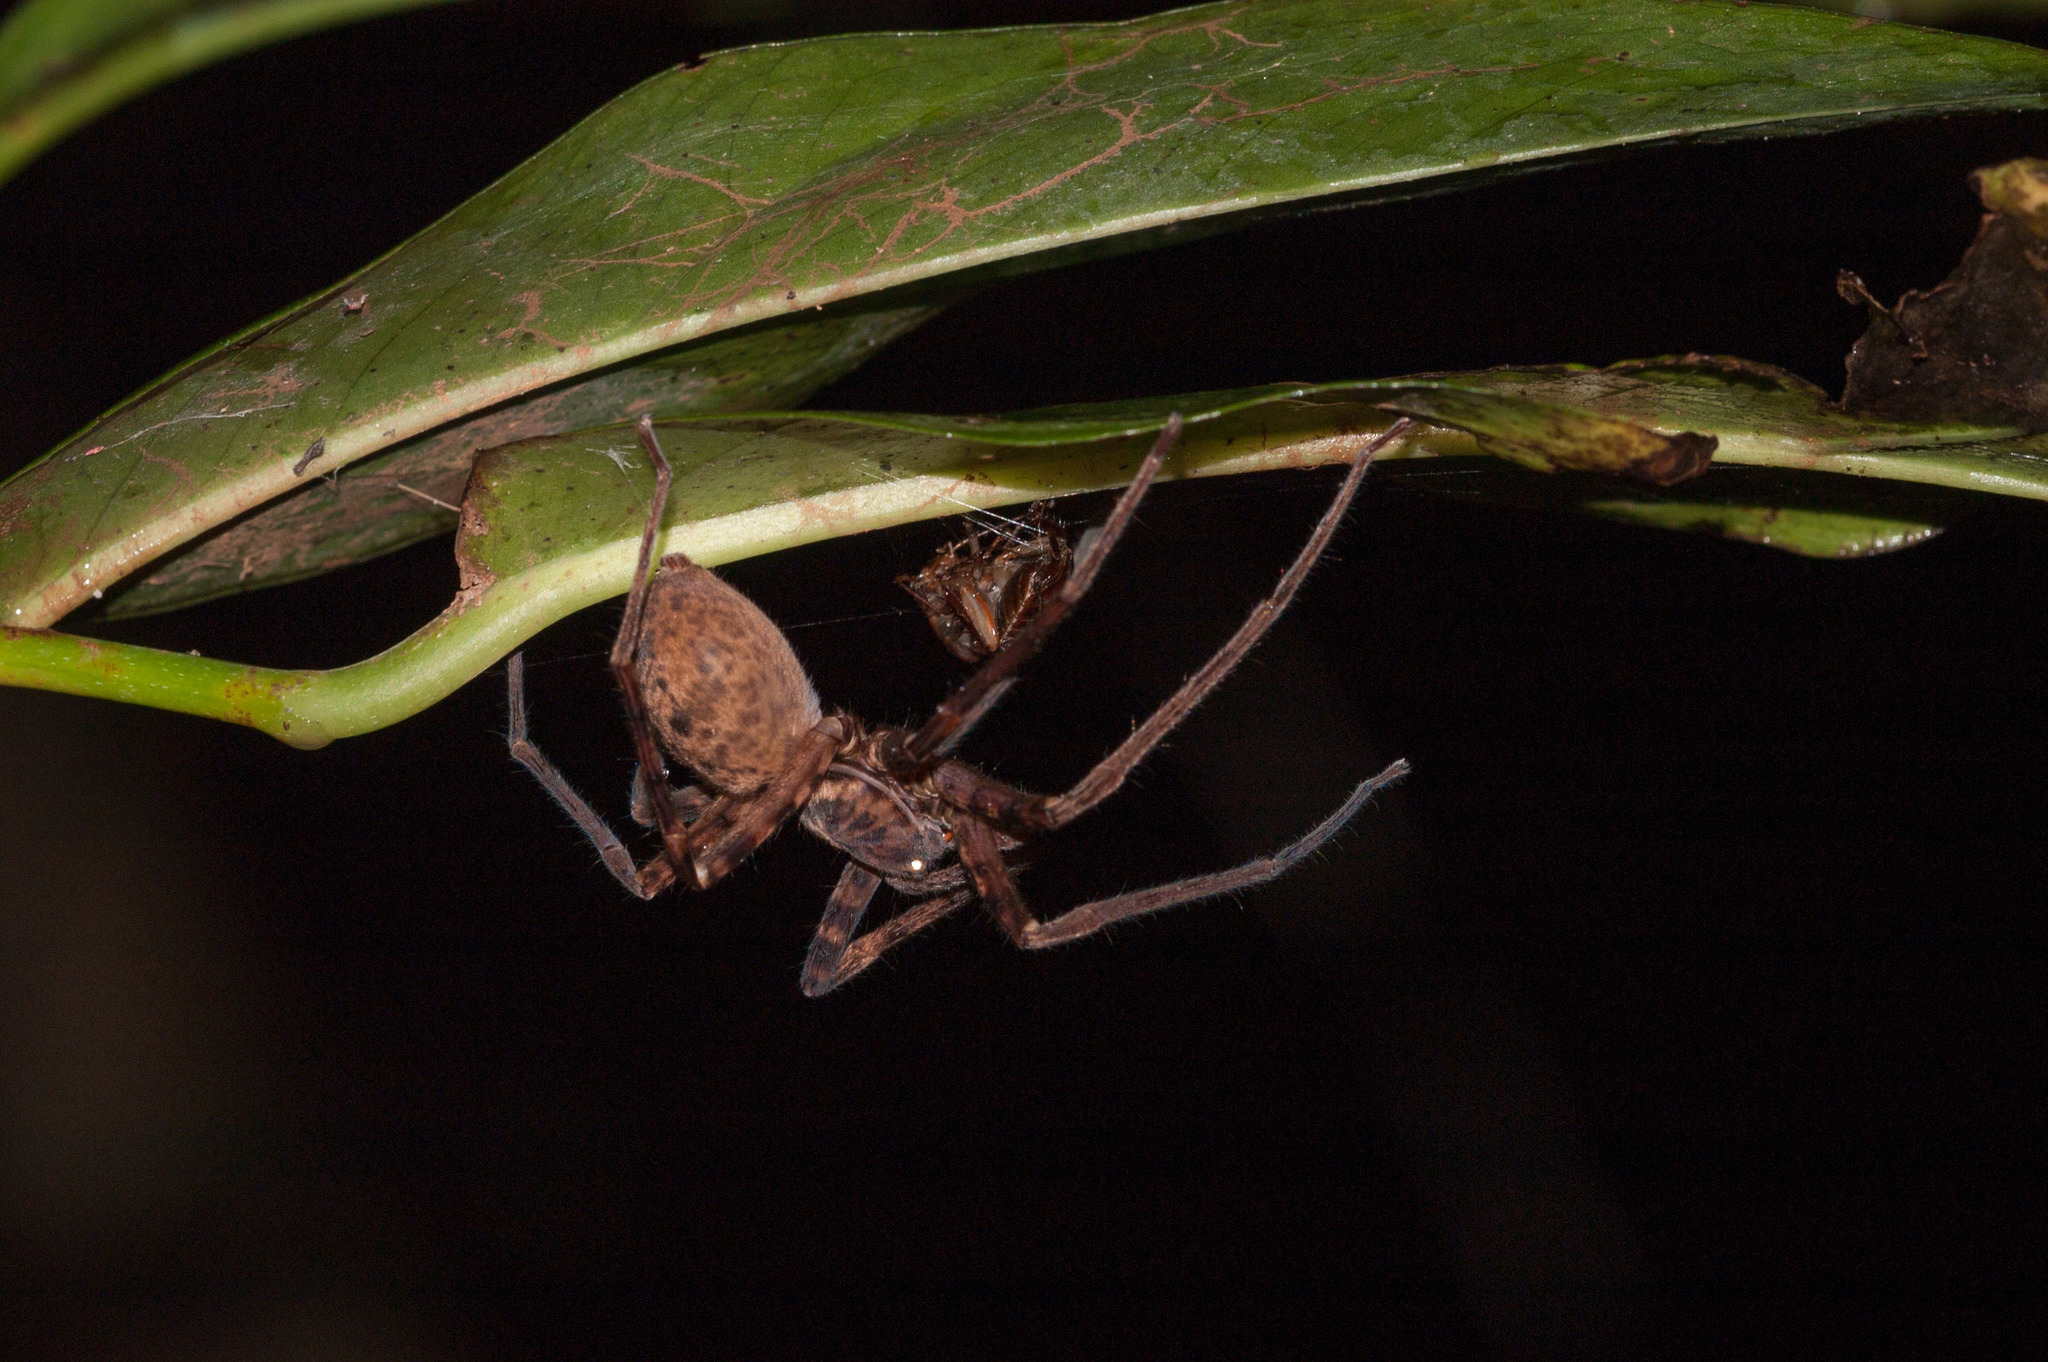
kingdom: Animalia
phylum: Arthropoda
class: Arachnida
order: Araneae
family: Sparassidae
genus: Heteropoda
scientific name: Heteropoda raveni
